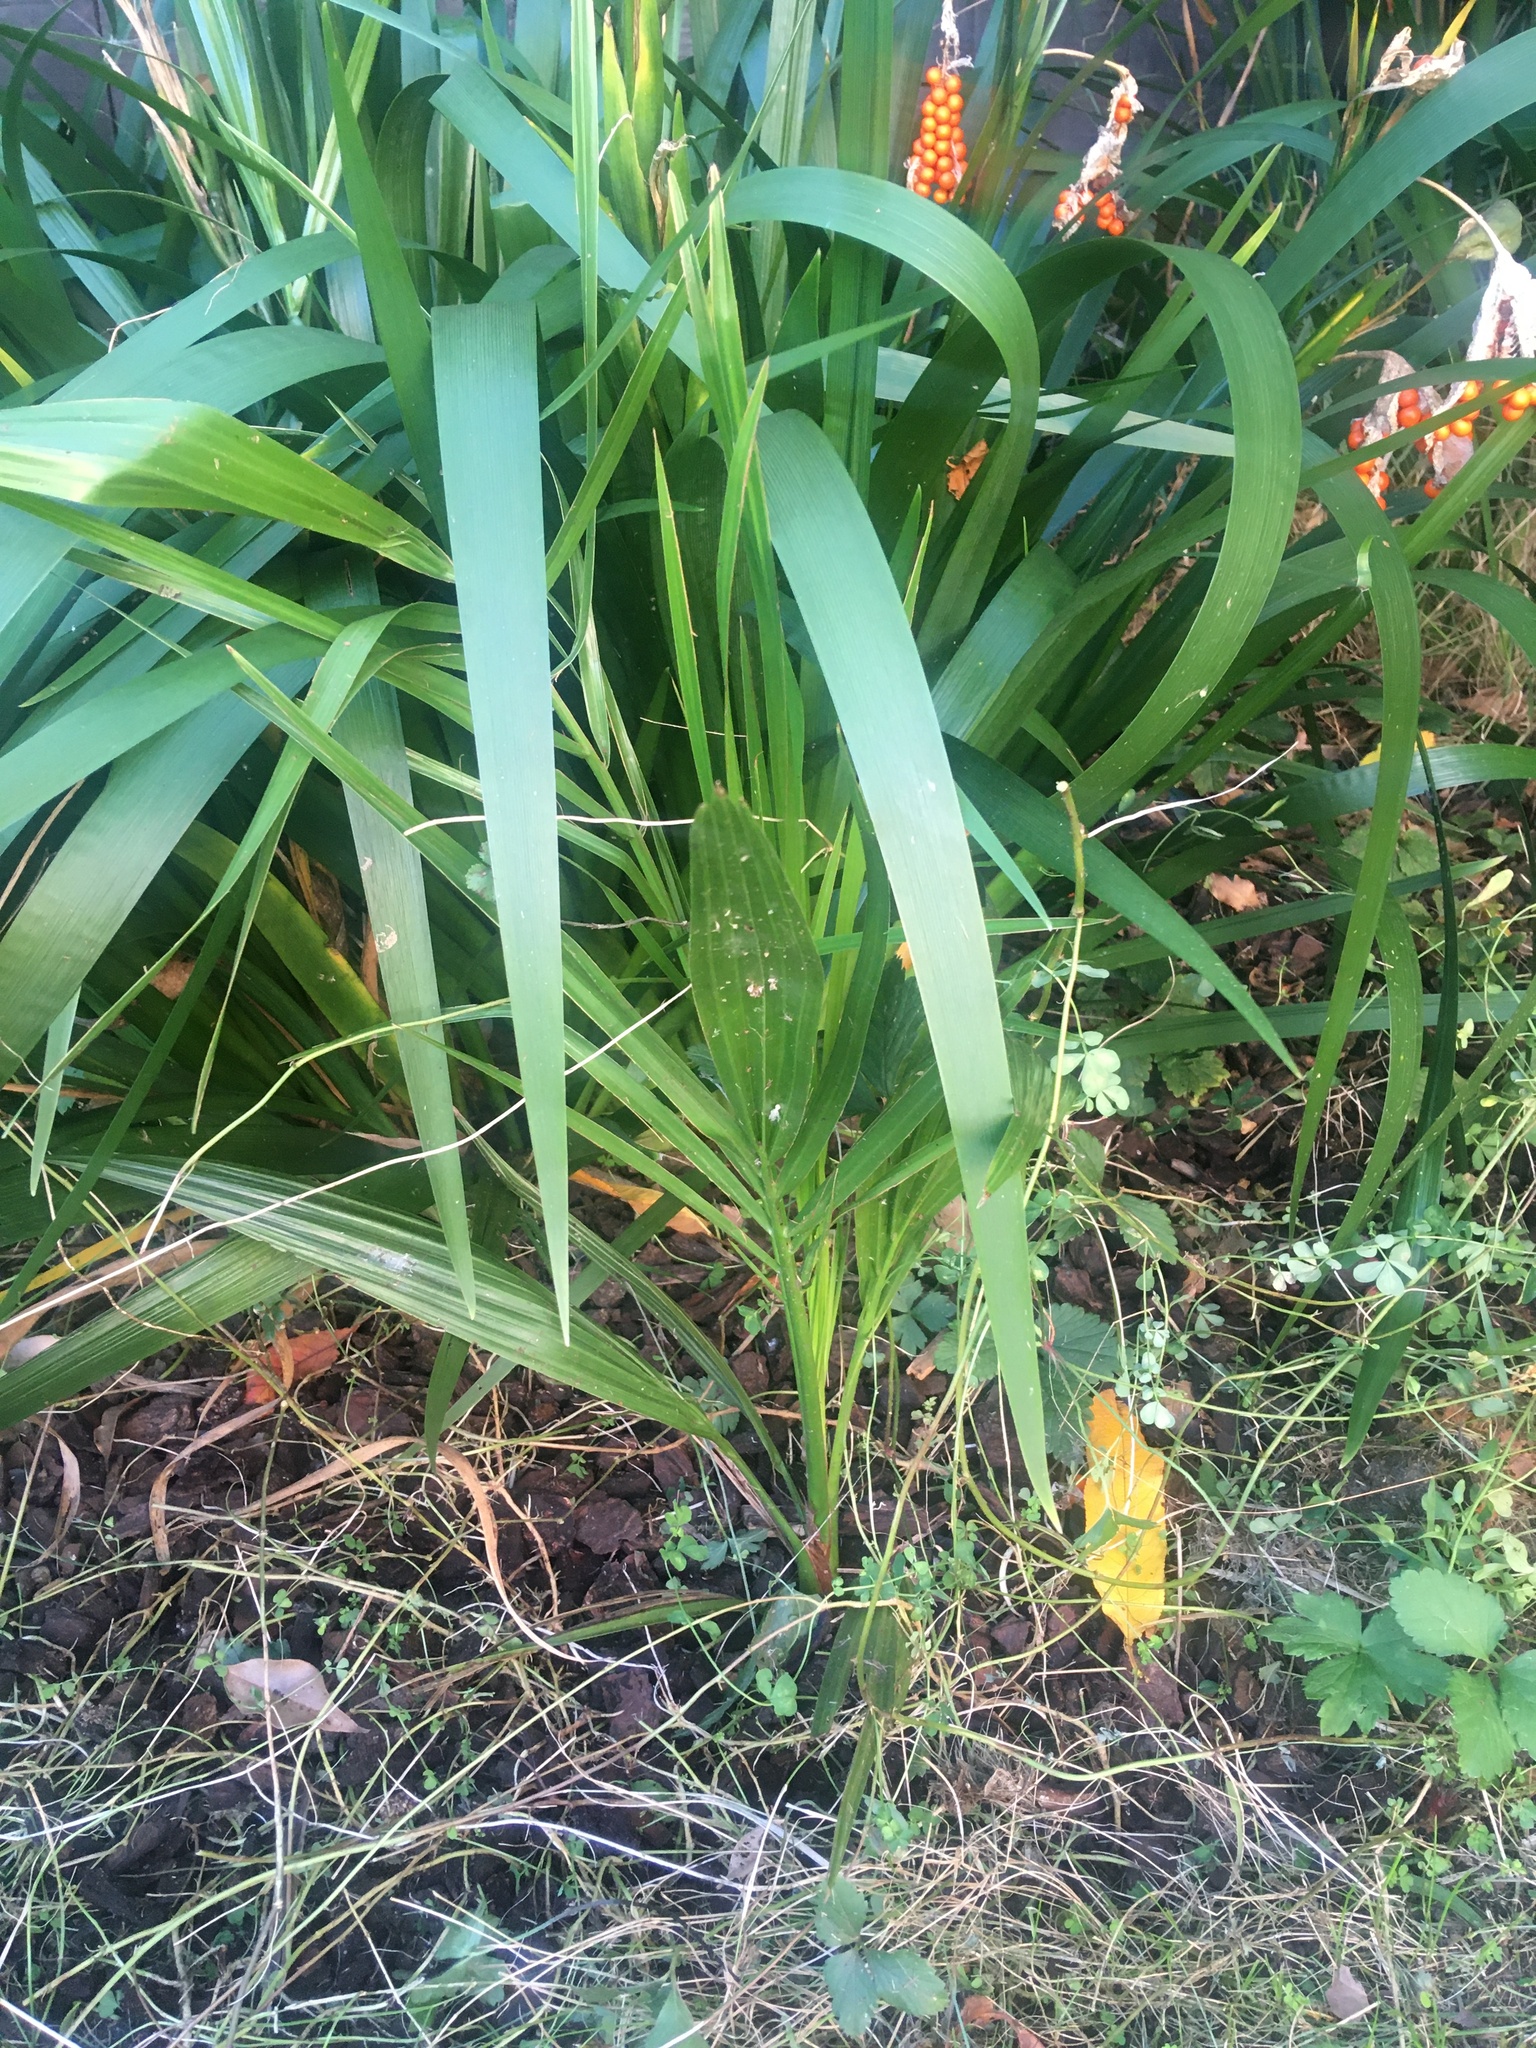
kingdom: Plantae
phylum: Tracheophyta
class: Liliopsida
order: Asparagales
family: Iridaceae
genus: Iris
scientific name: Iris foetidissima
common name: Stinking iris
